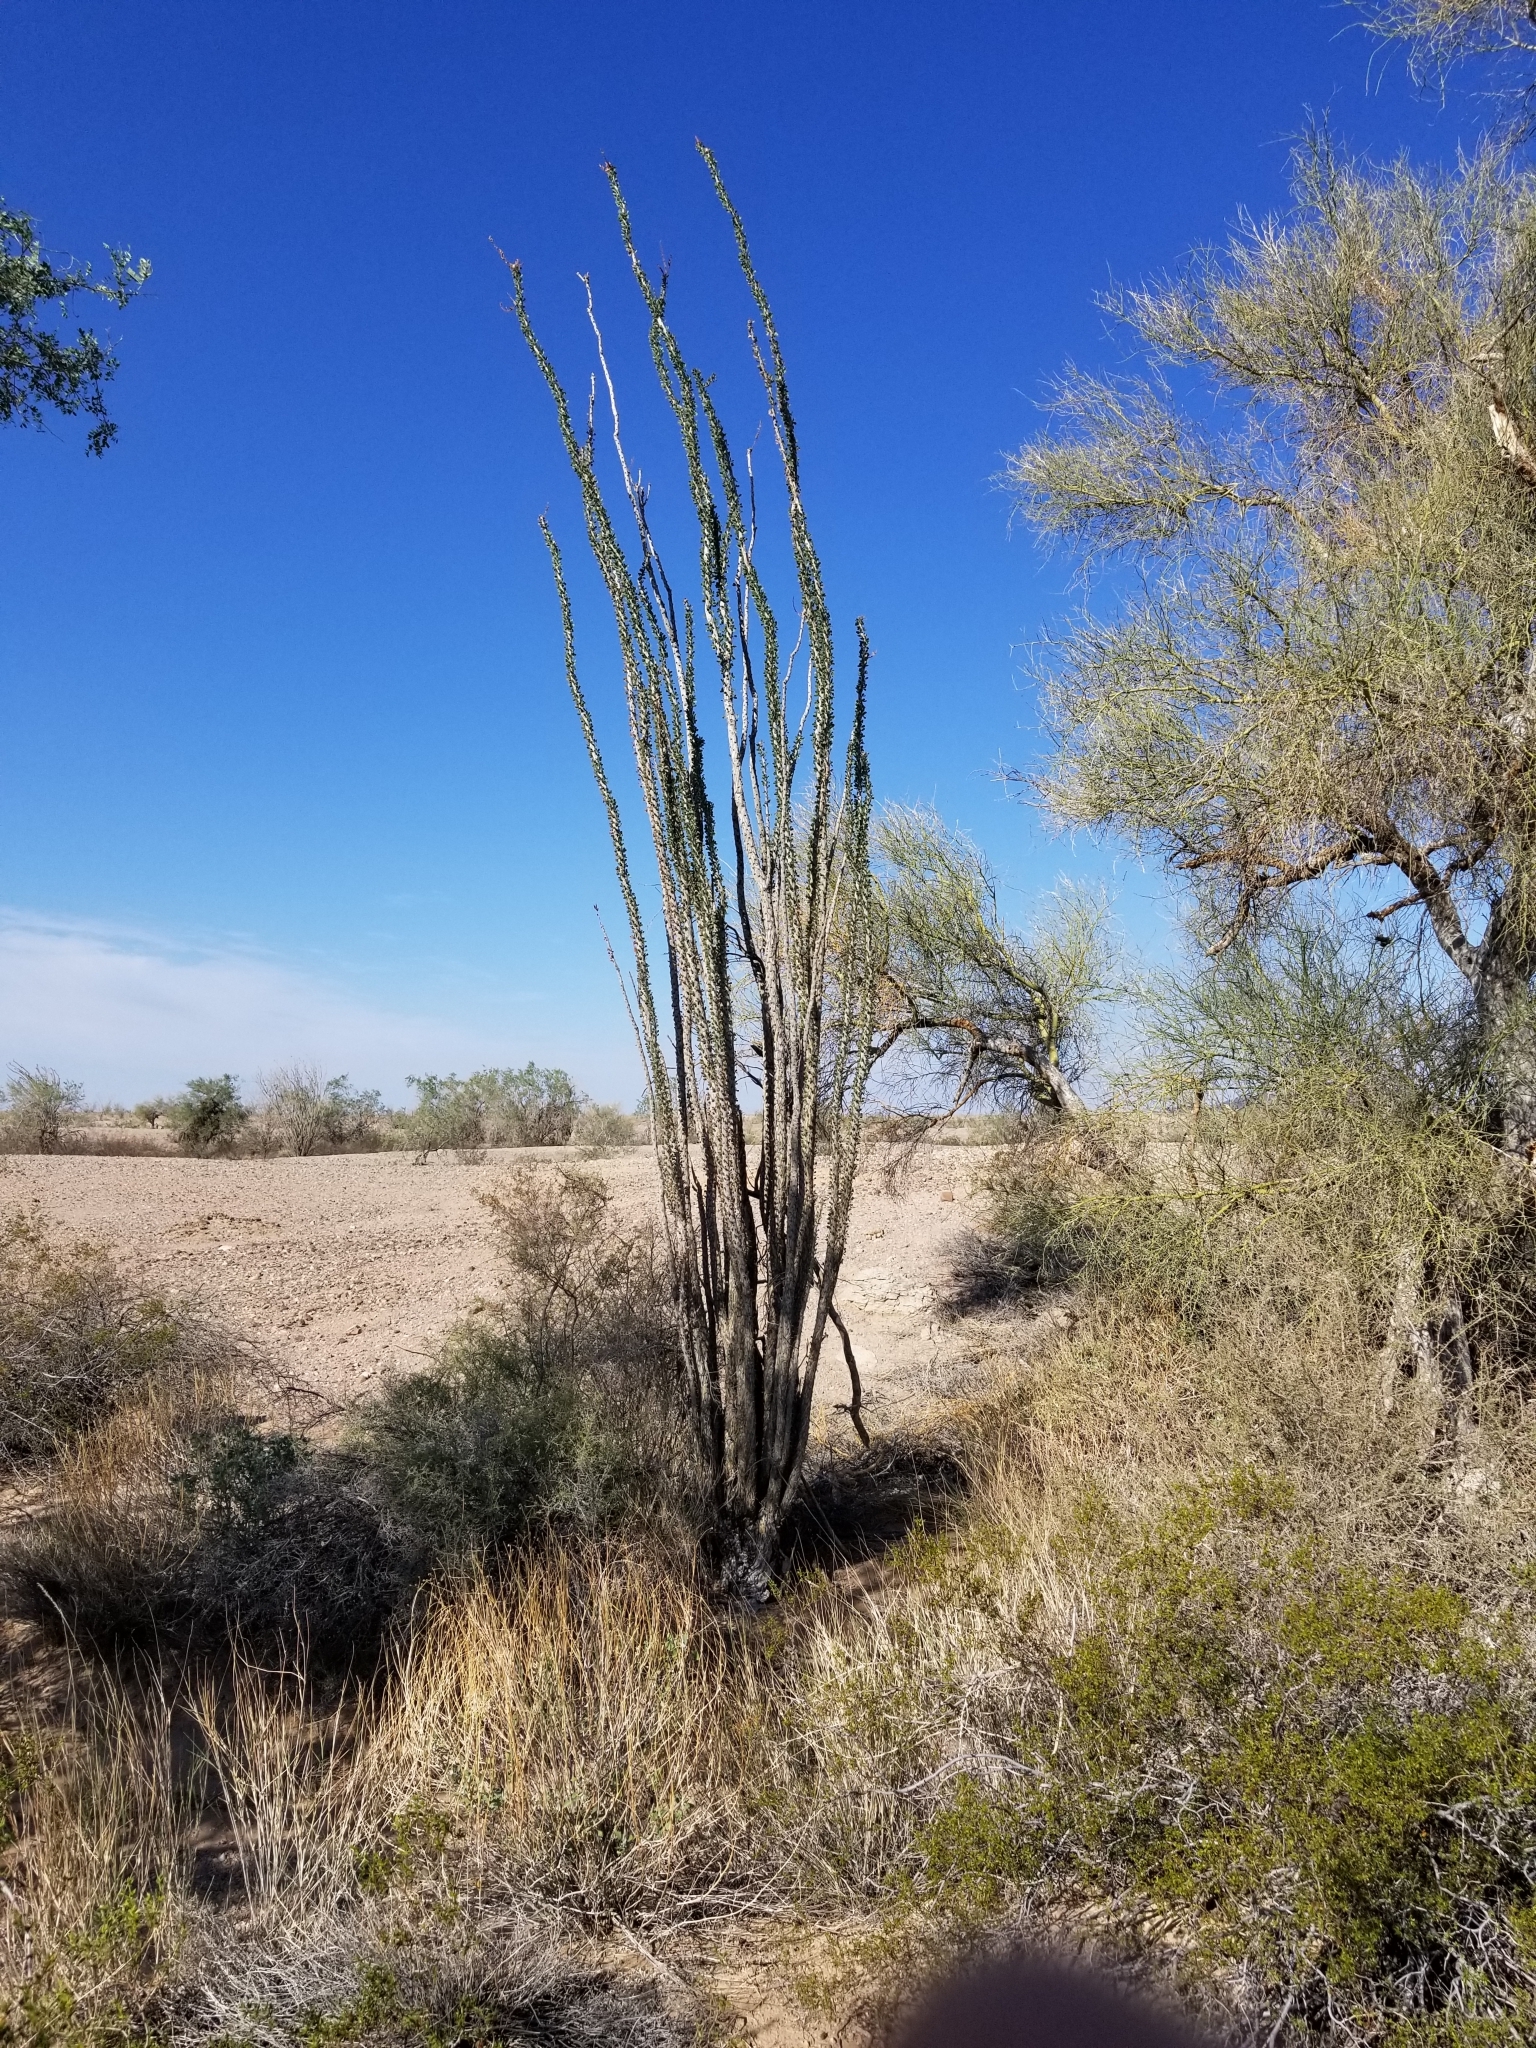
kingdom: Plantae
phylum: Tracheophyta
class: Magnoliopsida
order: Ericales
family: Fouquieriaceae
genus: Fouquieria
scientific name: Fouquieria splendens
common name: Vine-cactus
